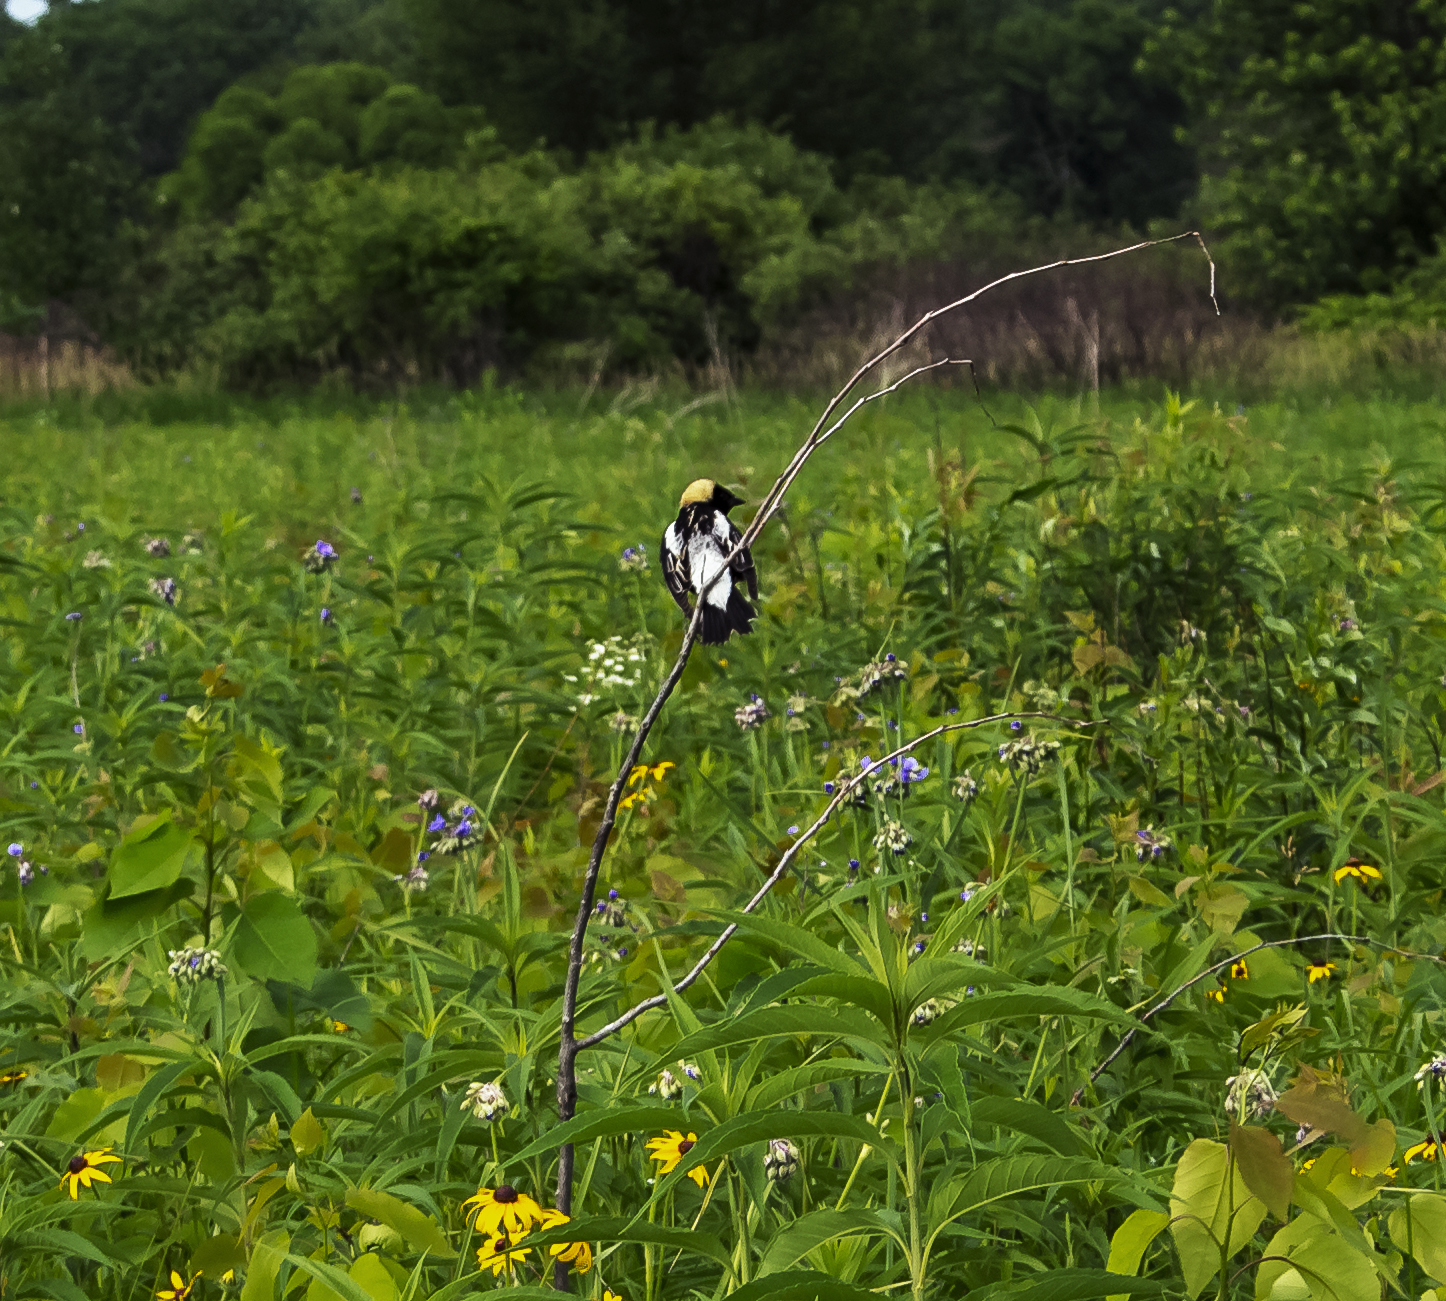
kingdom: Animalia
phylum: Chordata
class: Aves
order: Passeriformes
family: Icteridae
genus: Dolichonyx
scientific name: Dolichonyx oryzivorus
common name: Bobolink
